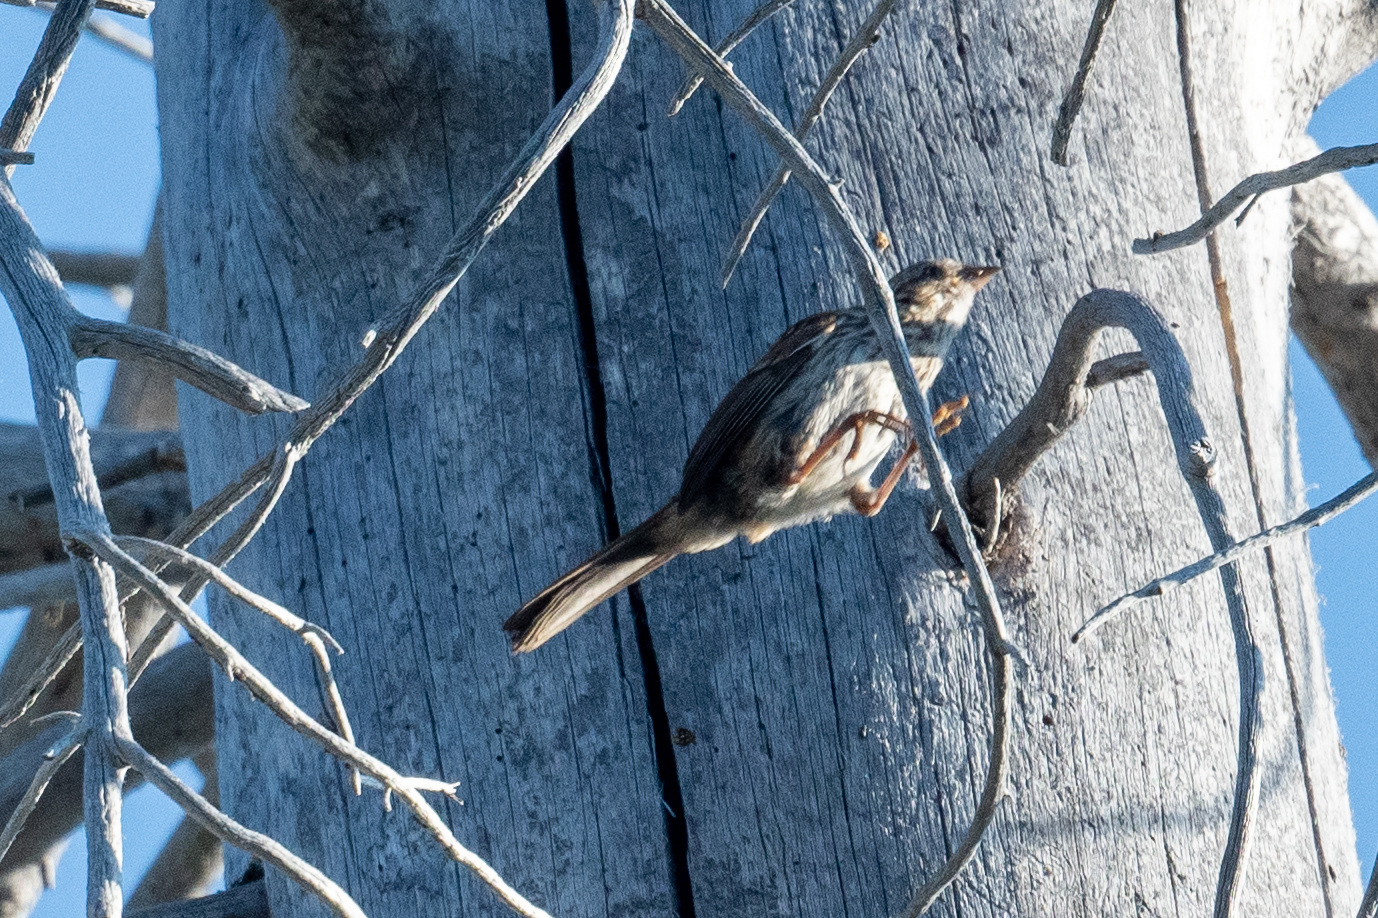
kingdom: Animalia
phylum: Chordata
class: Aves
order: Passeriformes
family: Passerellidae
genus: Melospiza
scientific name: Melospiza melodia
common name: Song sparrow
